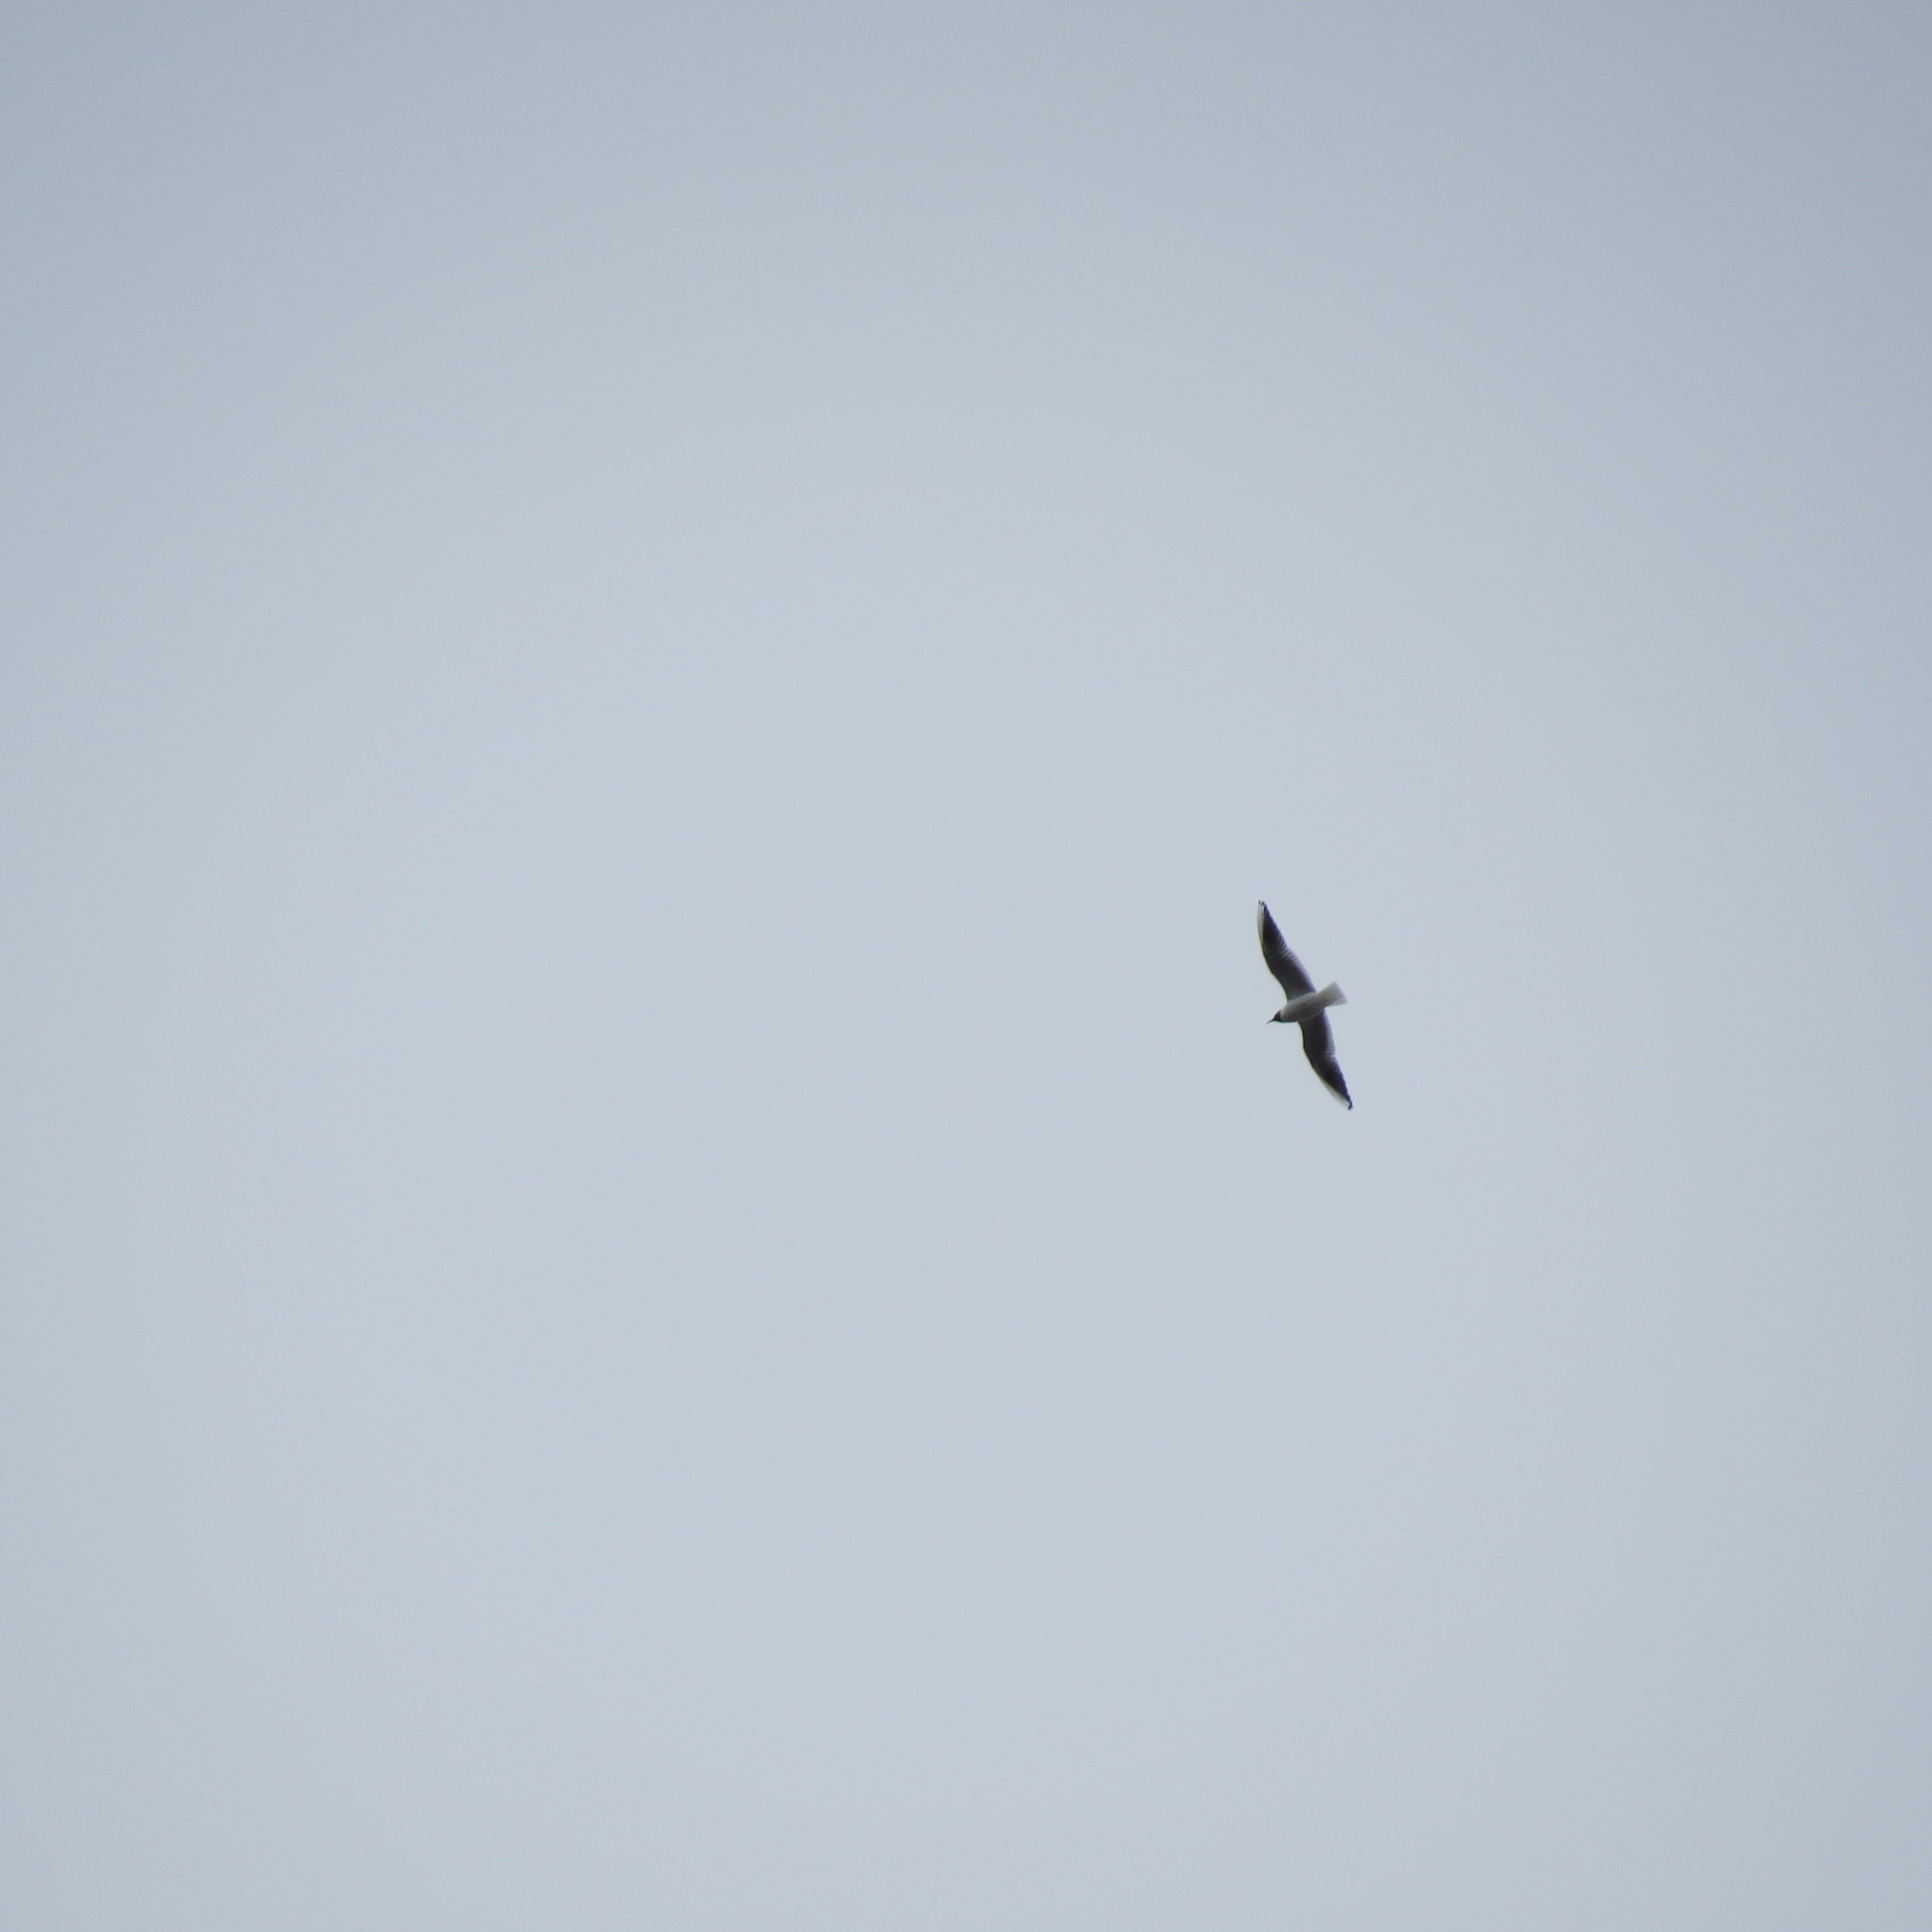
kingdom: Animalia
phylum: Chordata
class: Aves
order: Charadriiformes
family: Laridae
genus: Chroicocephalus
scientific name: Chroicocephalus ridibundus
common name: Black-headed gull
